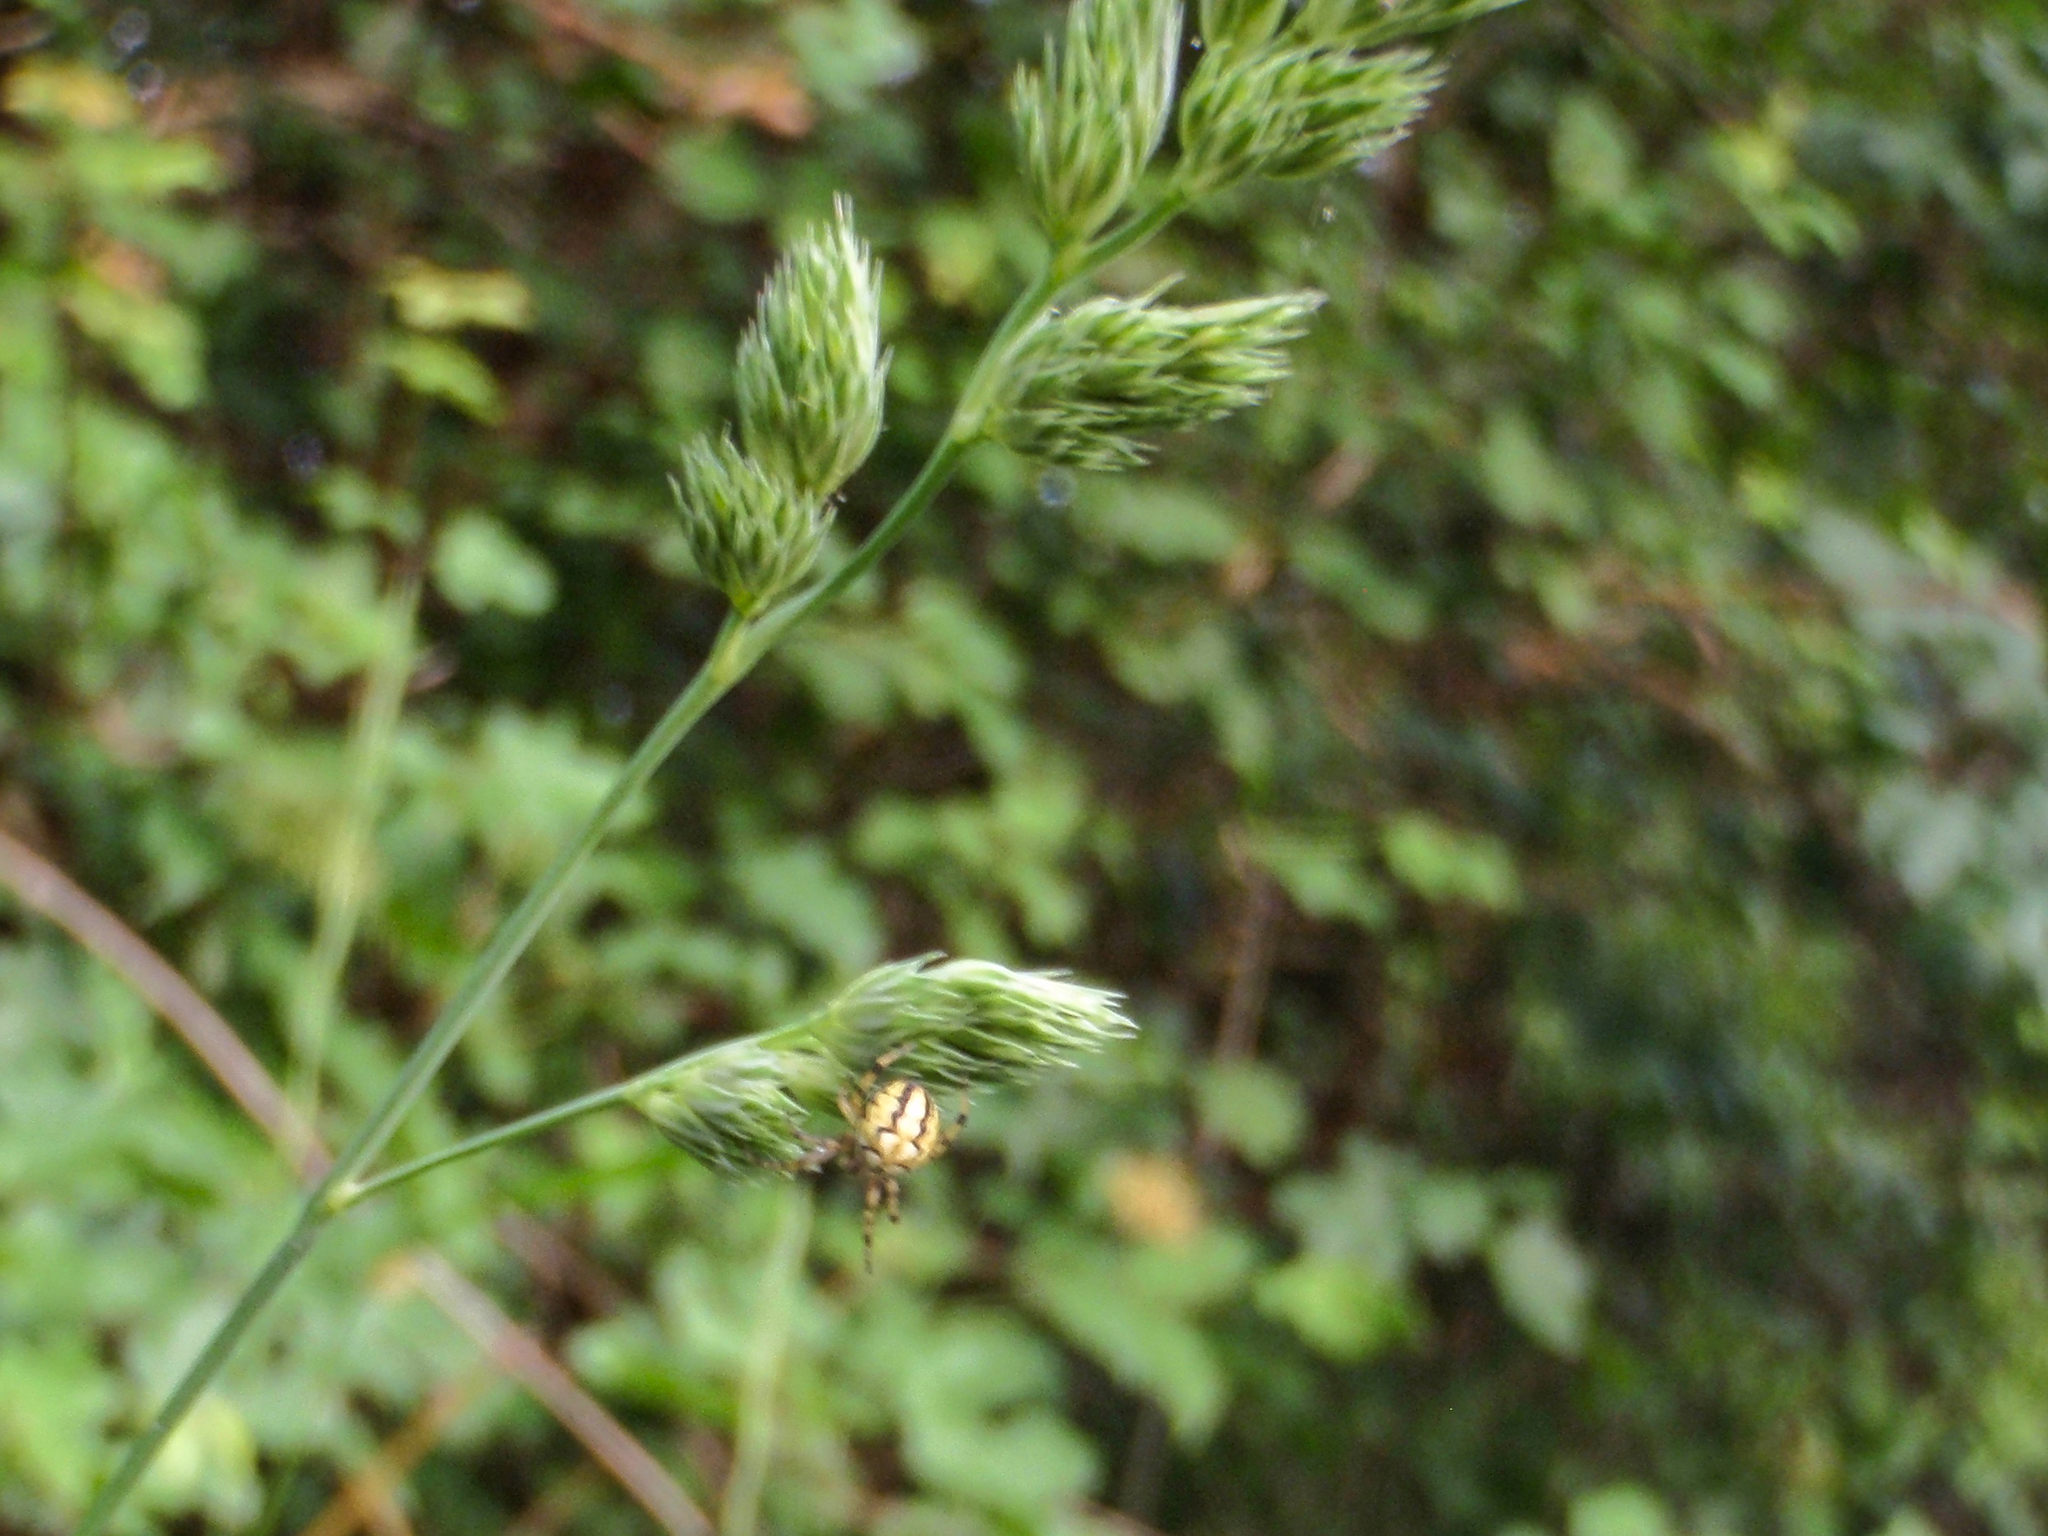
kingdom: Animalia
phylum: Arthropoda
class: Arachnida
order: Araneae
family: Araneidae
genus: Neoscona
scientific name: Neoscona adianta
